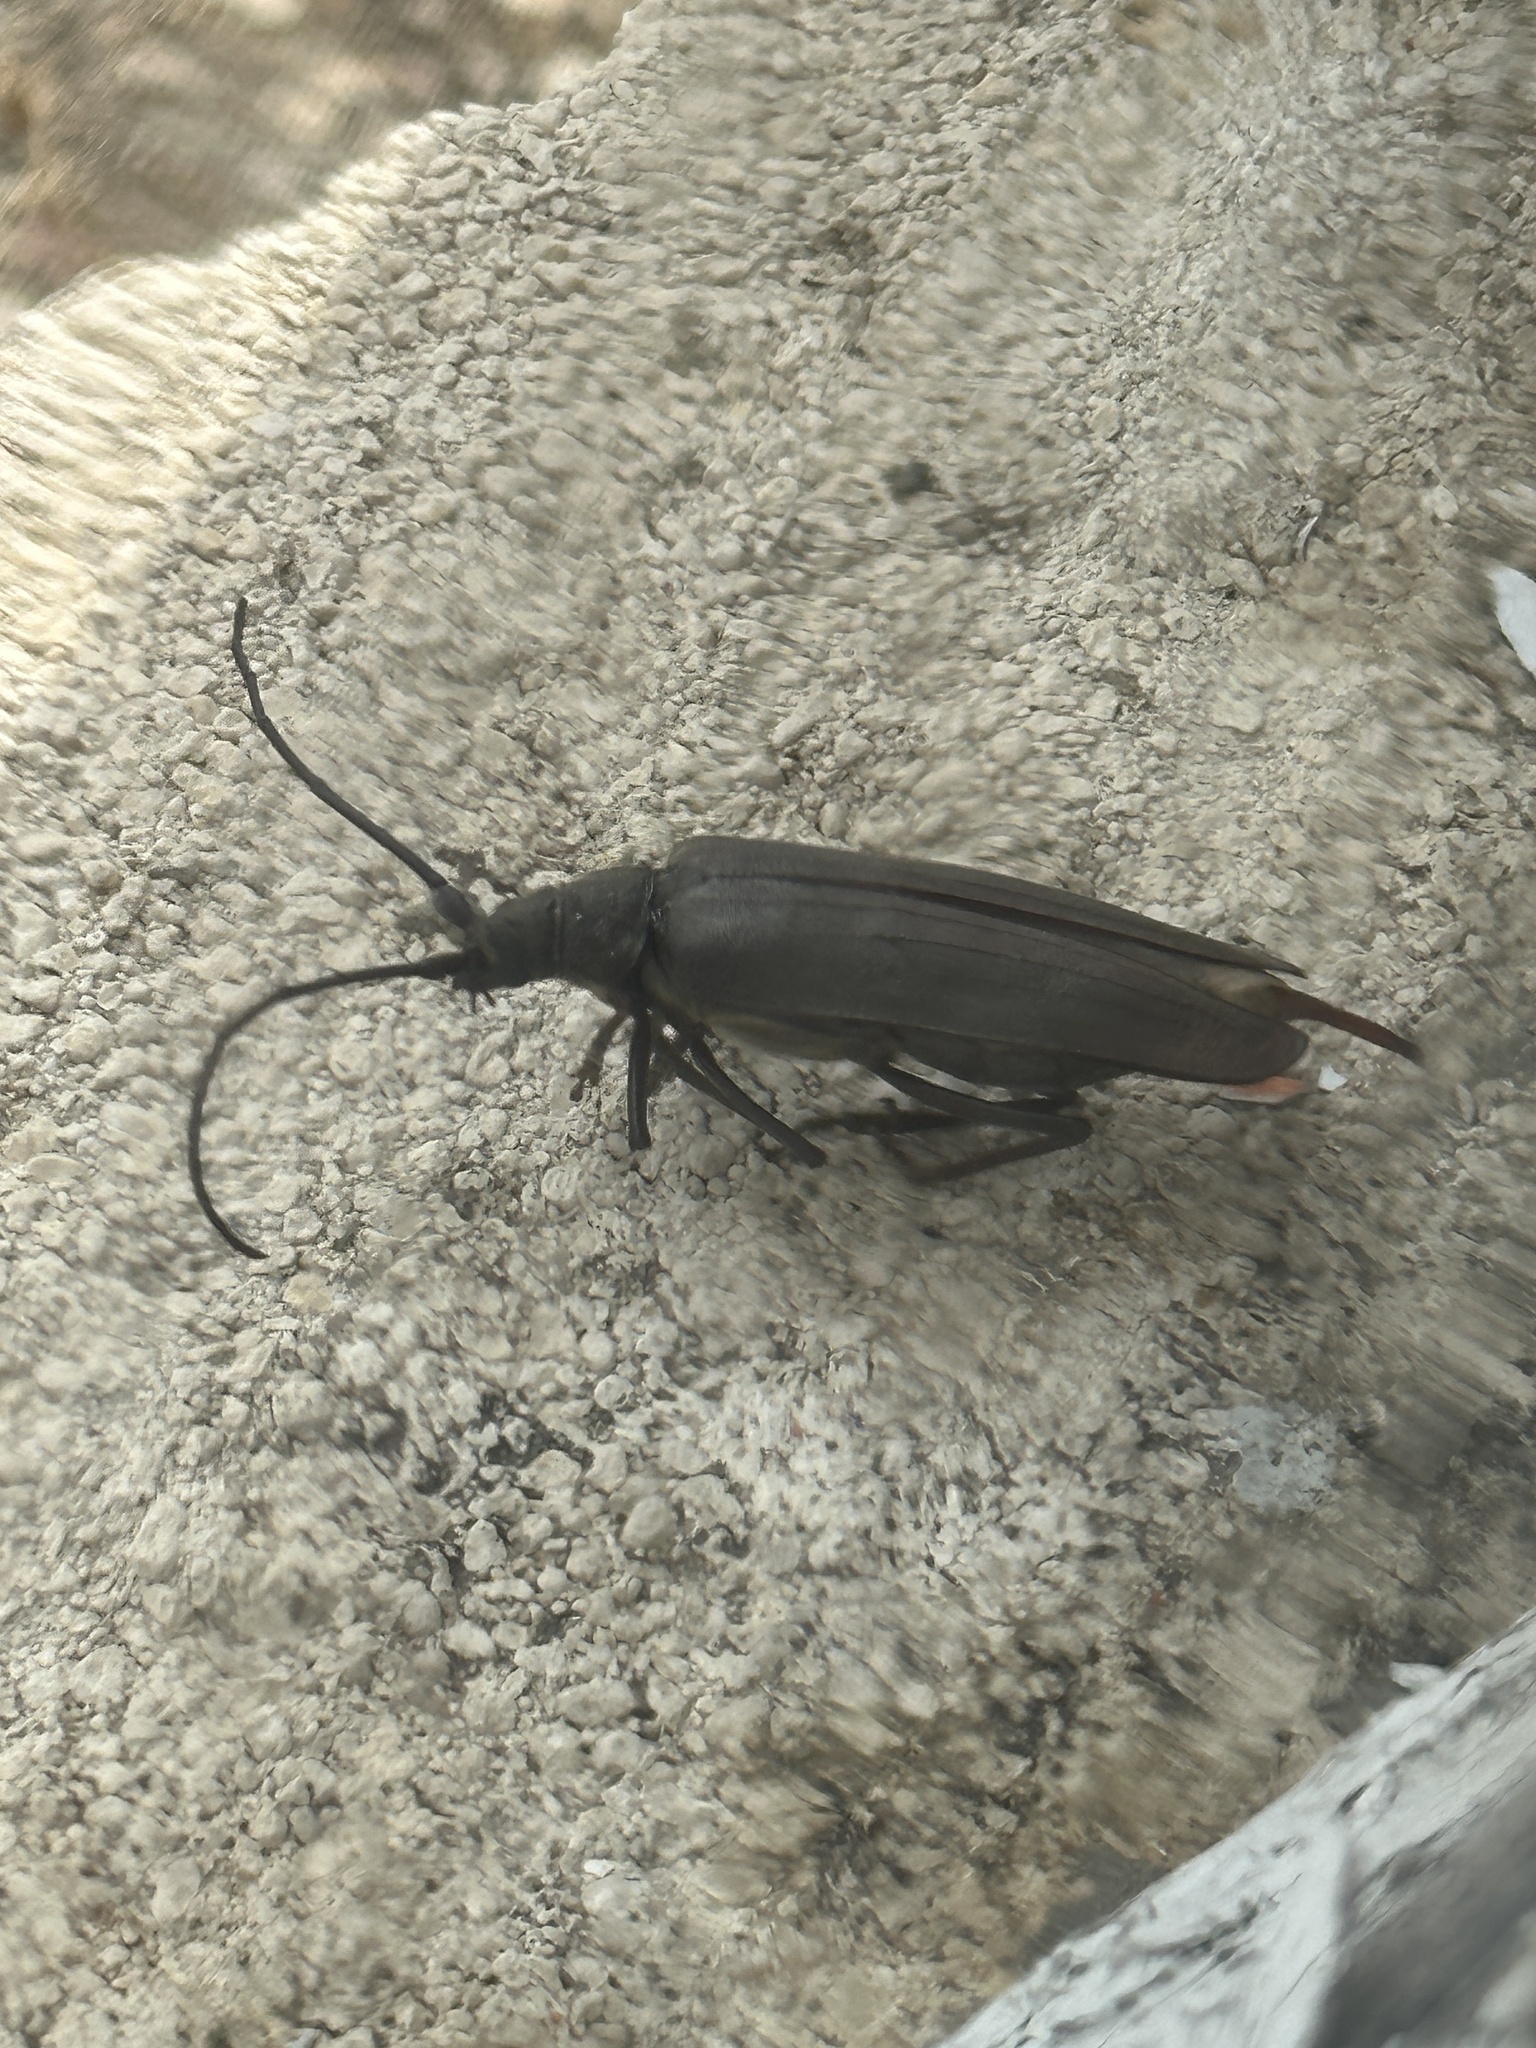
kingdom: Animalia
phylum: Arthropoda
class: Insecta
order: Coleoptera
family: Cerambycidae
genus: Aegosoma
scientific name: Aegosoma scabricorne
